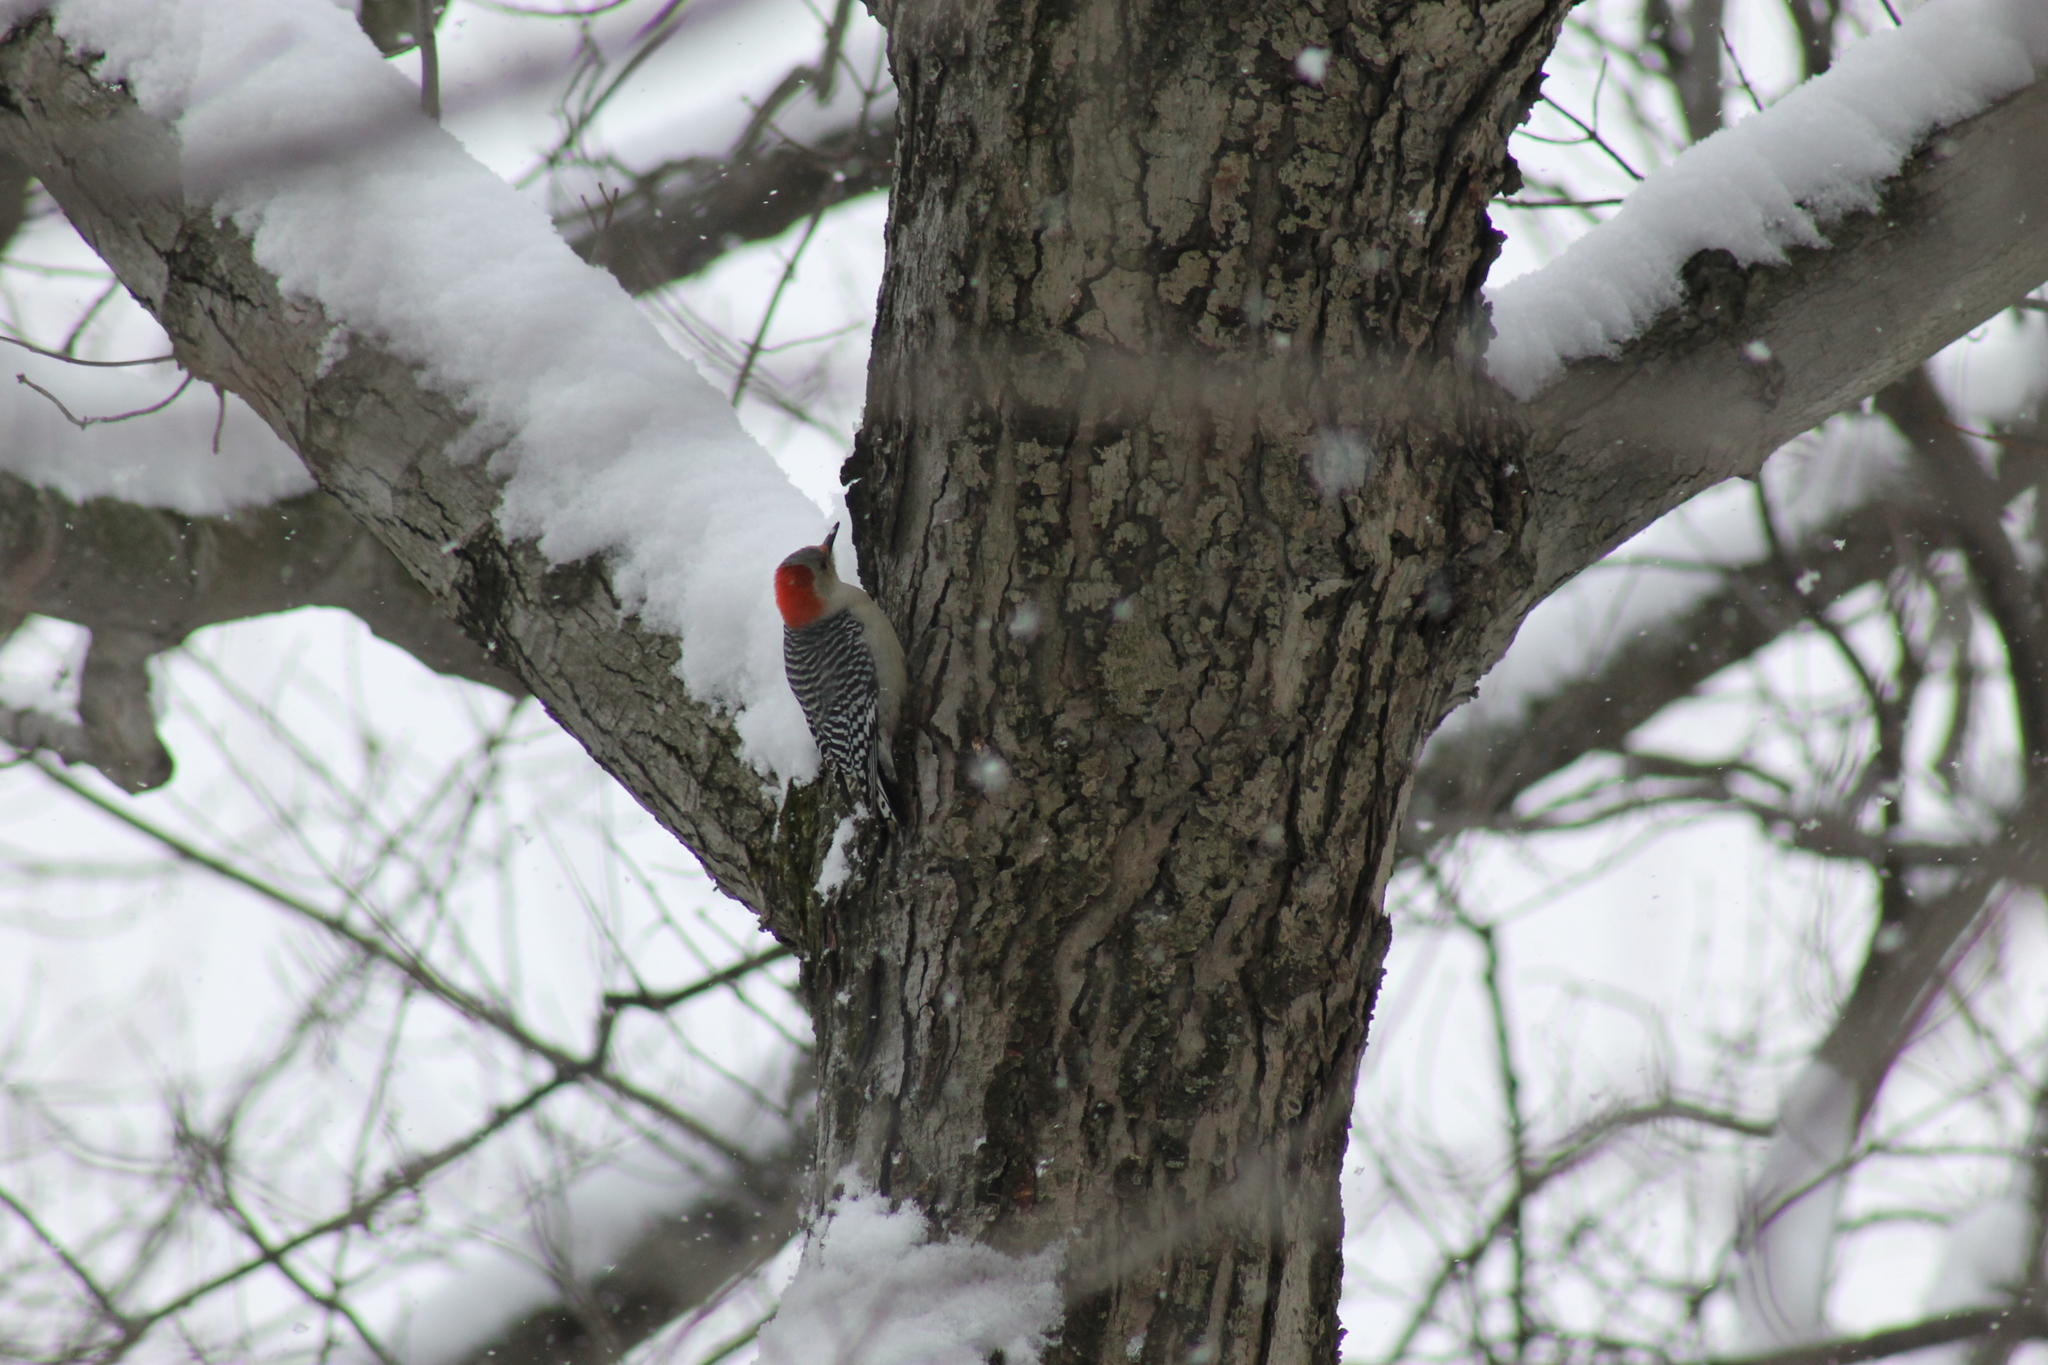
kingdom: Animalia
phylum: Chordata
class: Aves
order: Piciformes
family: Picidae
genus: Melanerpes
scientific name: Melanerpes carolinus
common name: Red-bellied woodpecker
